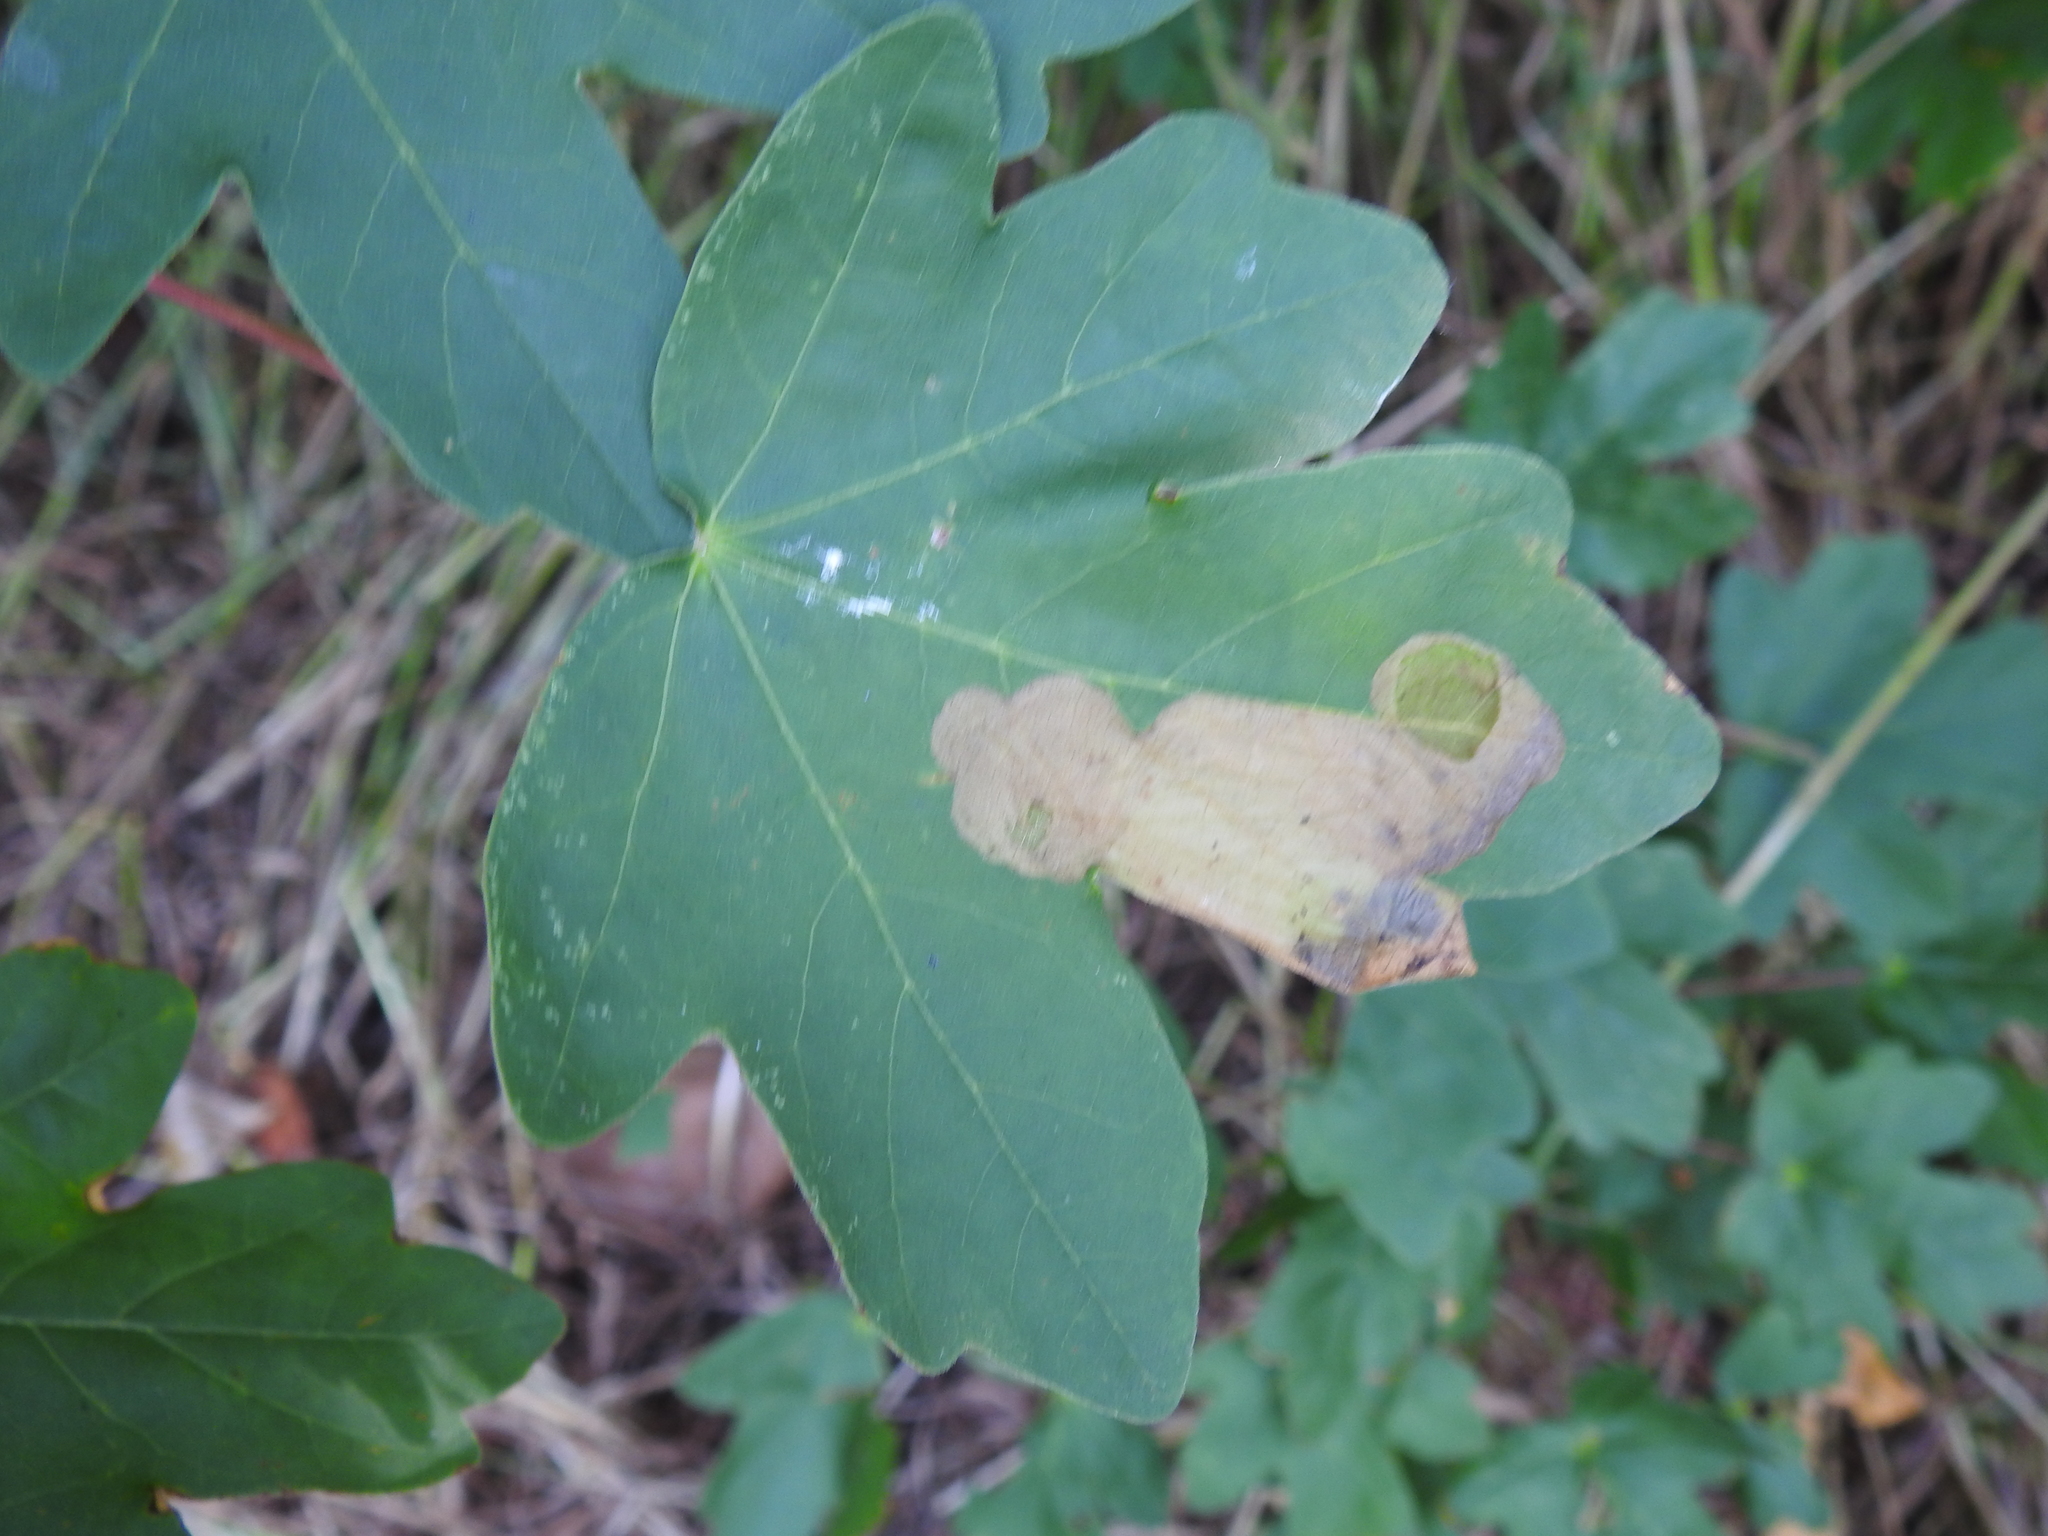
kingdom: Animalia
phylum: Arthropoda
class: Insecta
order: Hymenoptera
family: Tenthredinidae
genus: Heterarthrus
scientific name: Heterarthrus wuestneii
